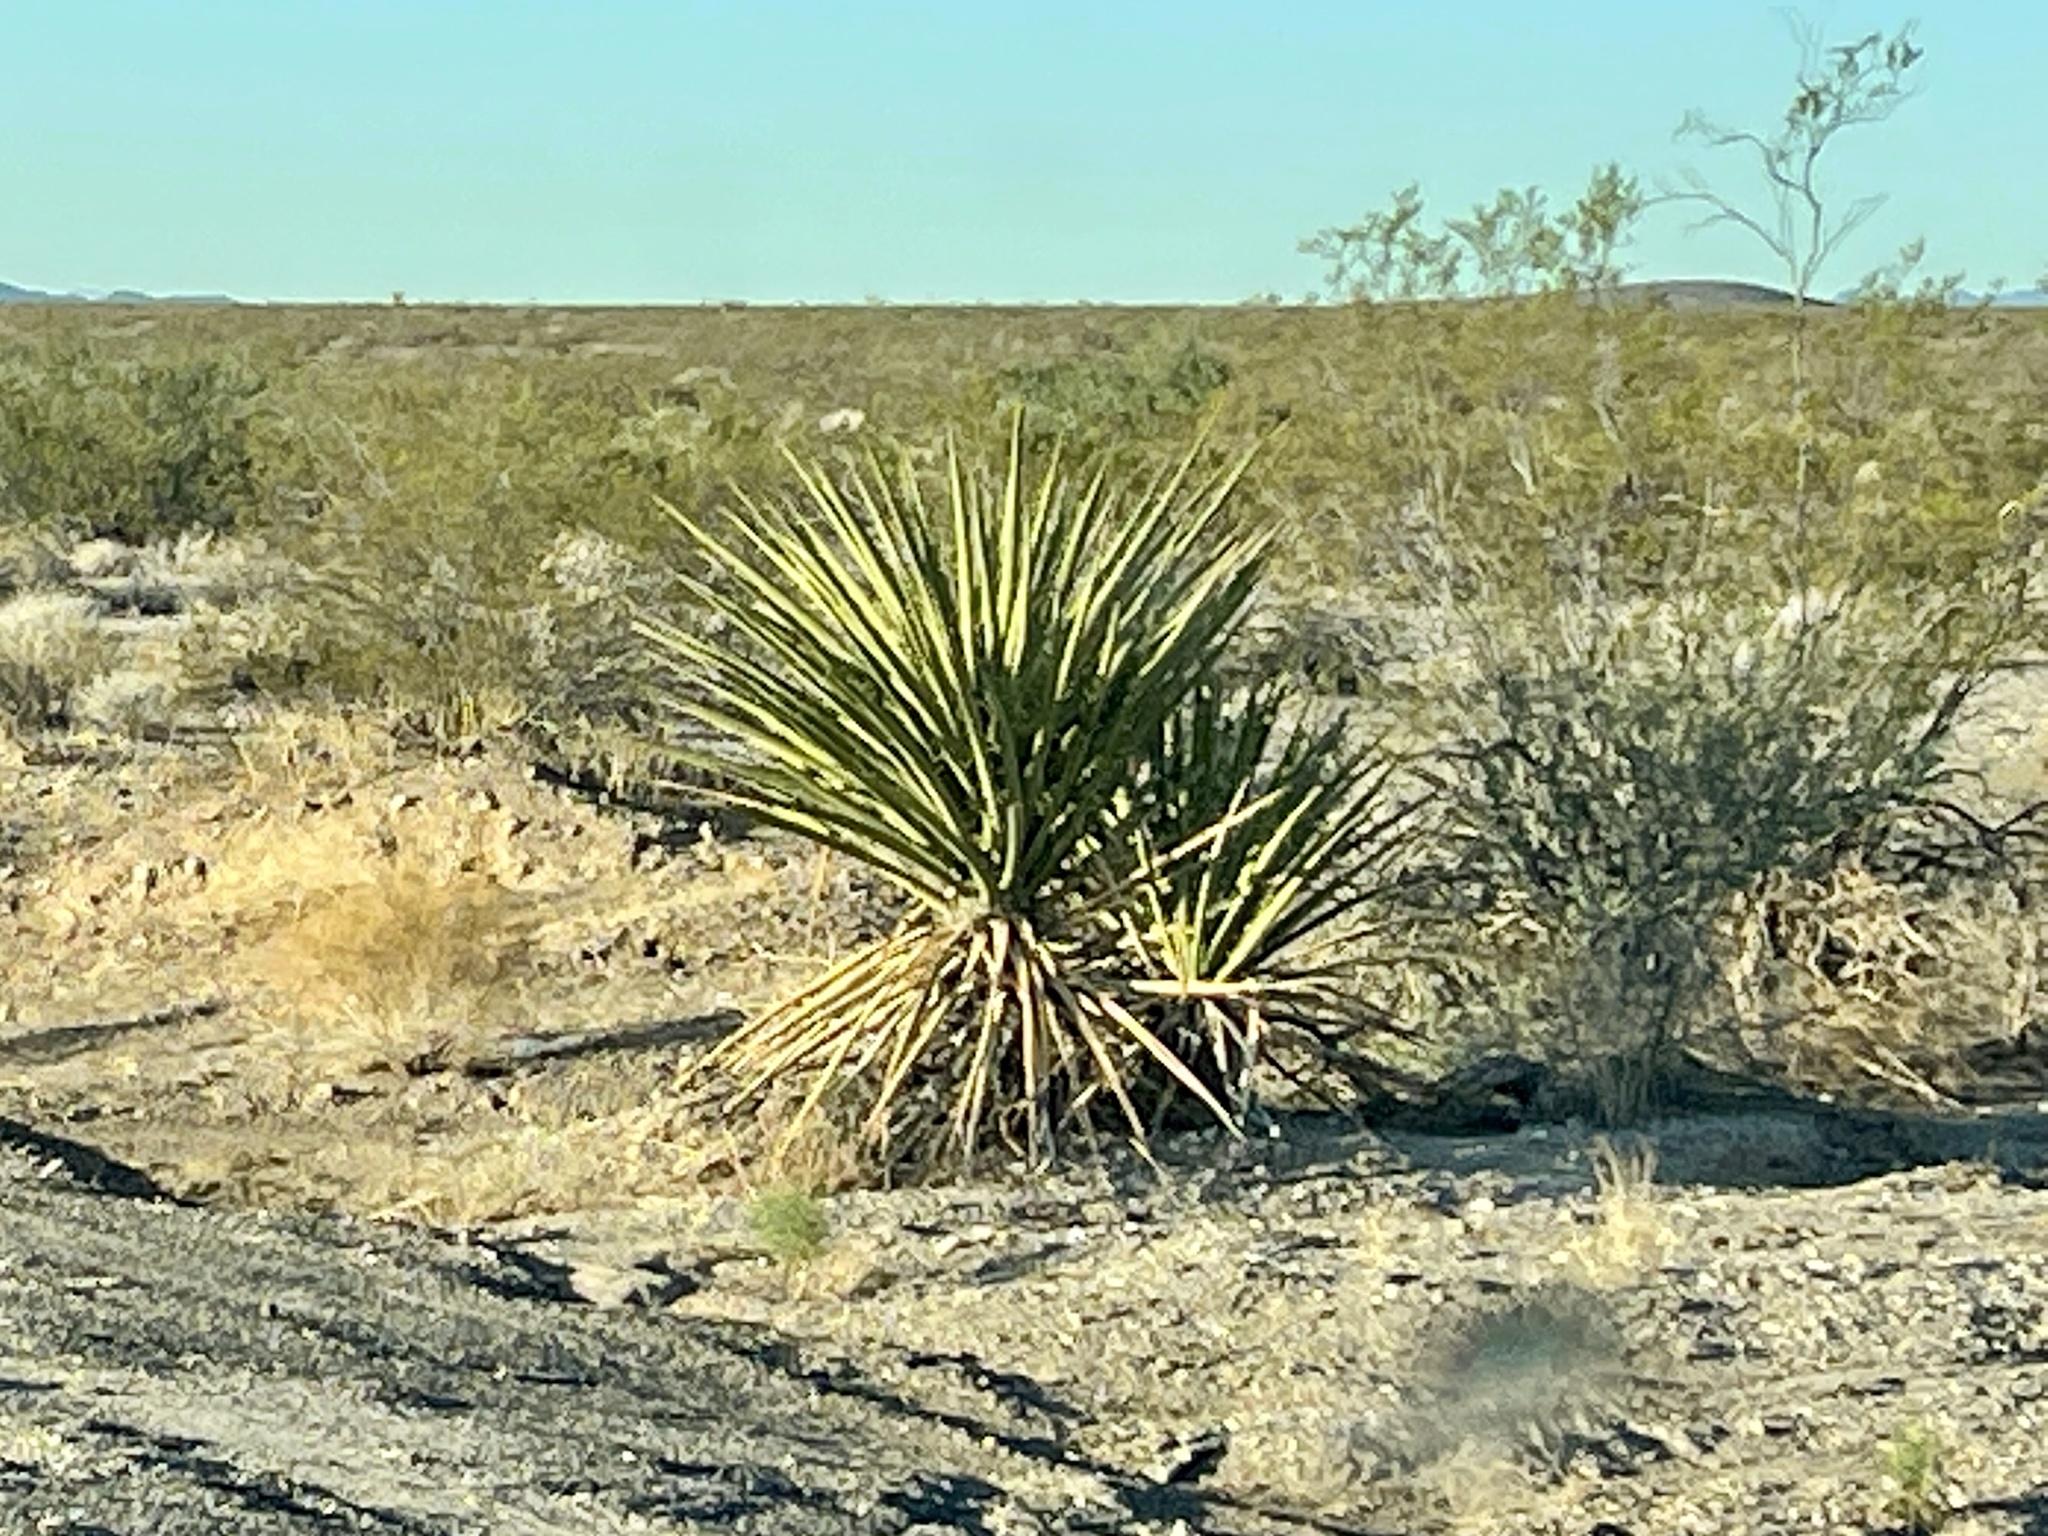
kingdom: Plantae
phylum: Tracheophyta
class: Liliopsida
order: Asparagales
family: Asparagaceae
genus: Yucca
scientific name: Yucca schidigera
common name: Mojave yucca
